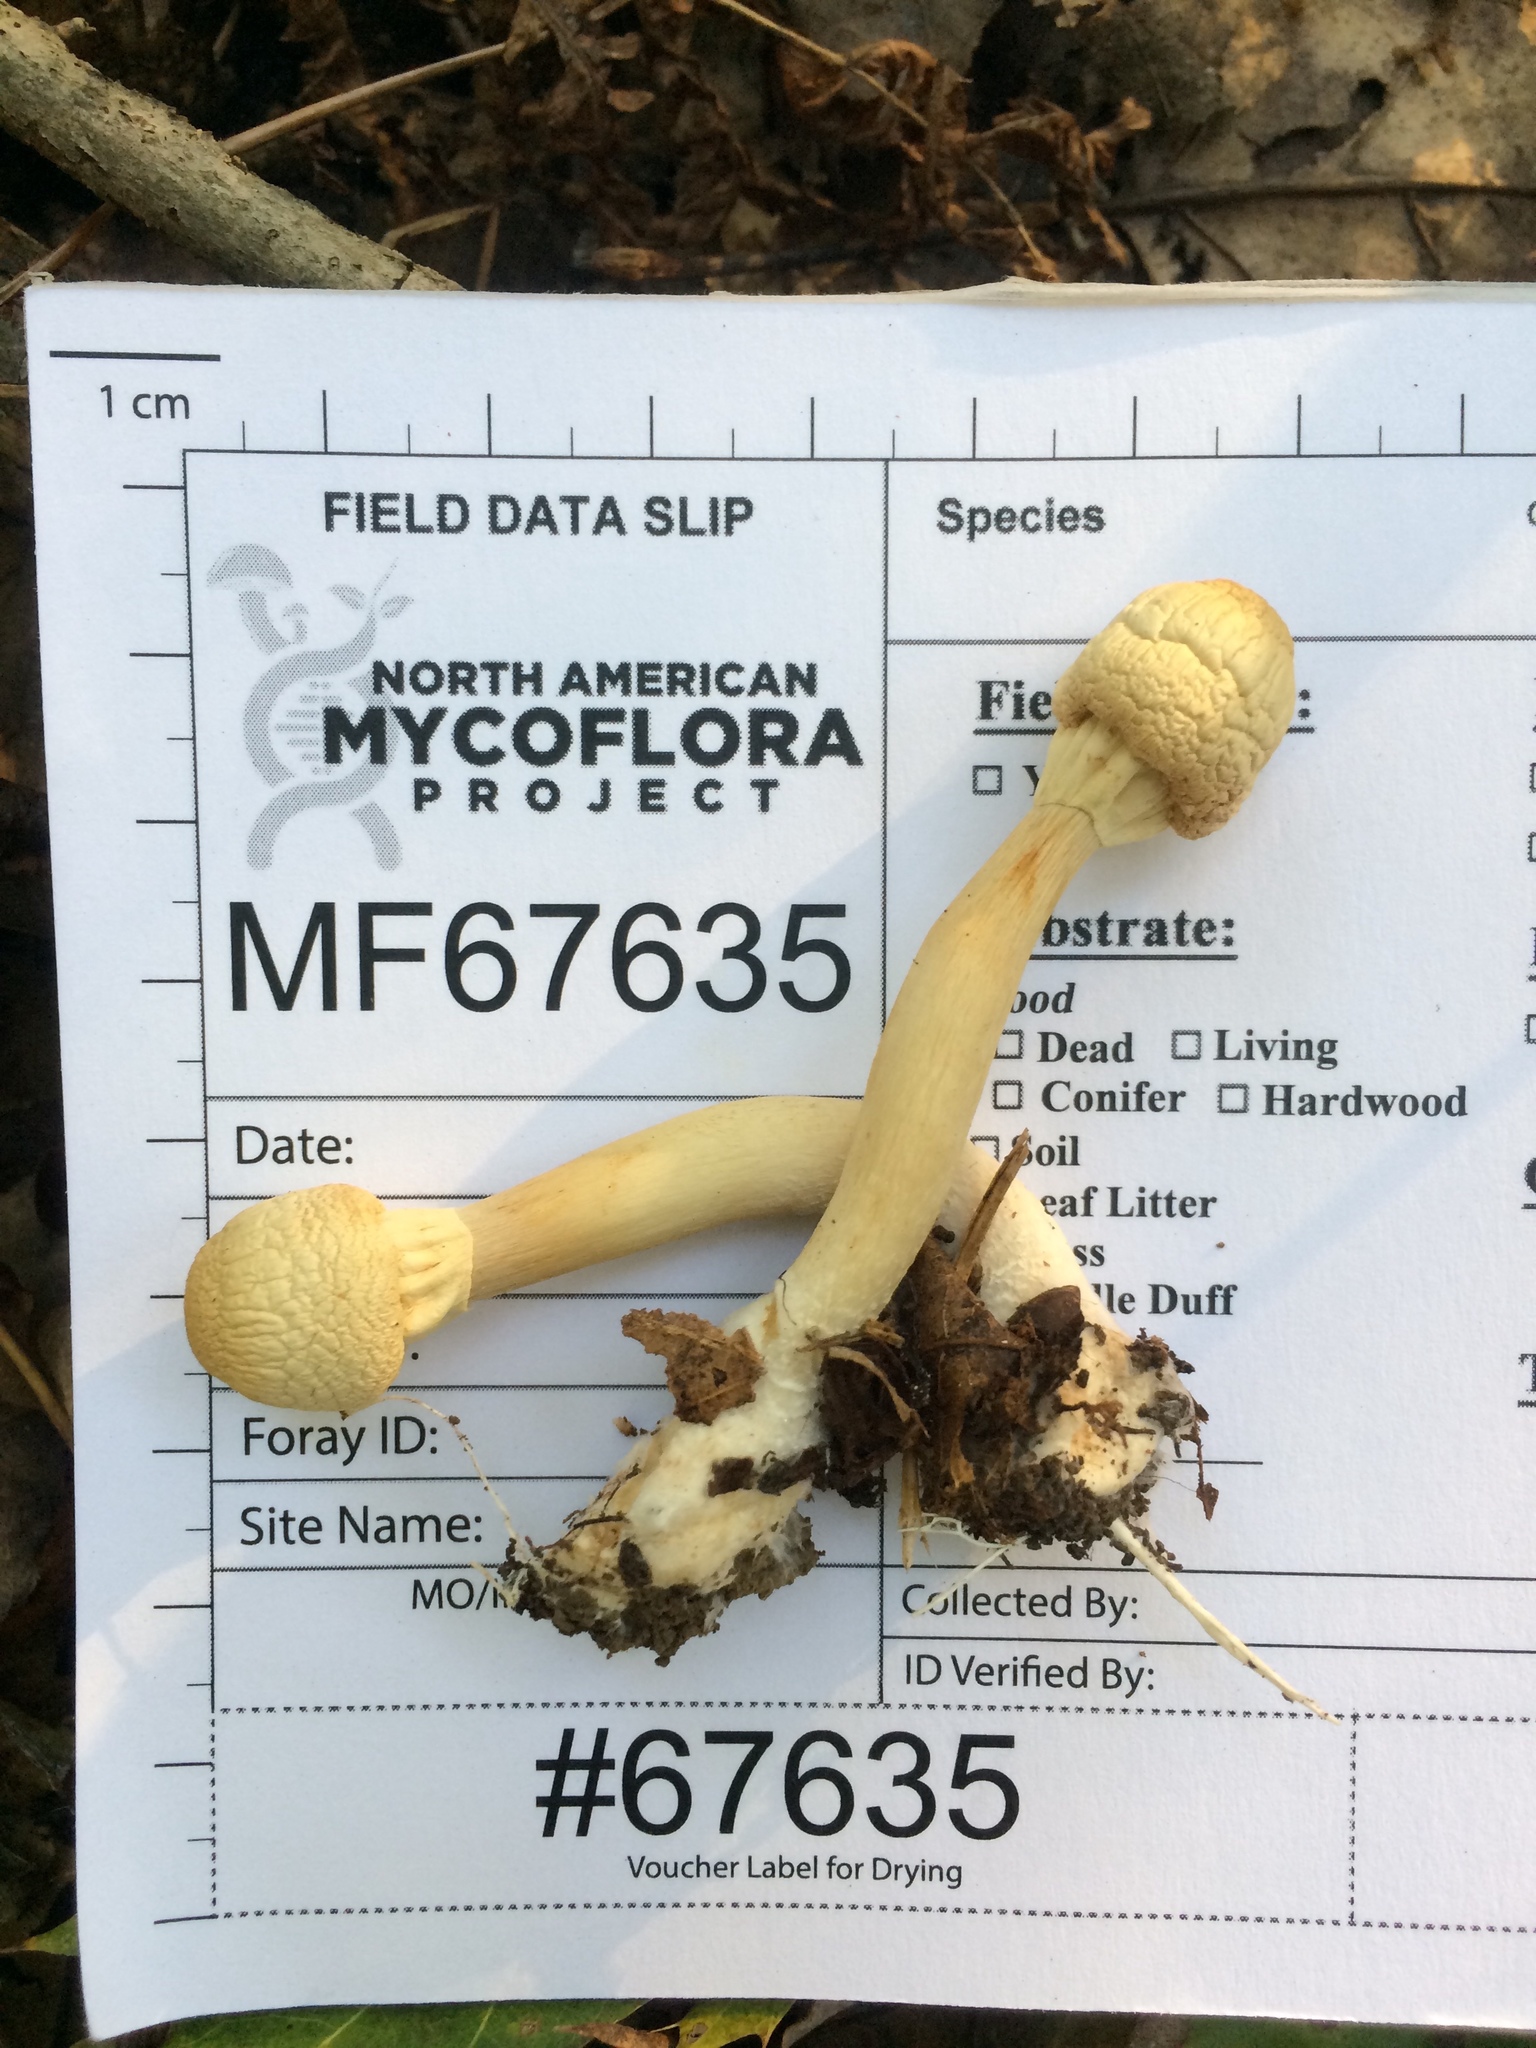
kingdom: Fungi
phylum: Basidiomycota
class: Agaricomycetes
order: Agaricales
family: Agaricaceae
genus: Agaricus
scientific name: Agaricus butyreburneus
